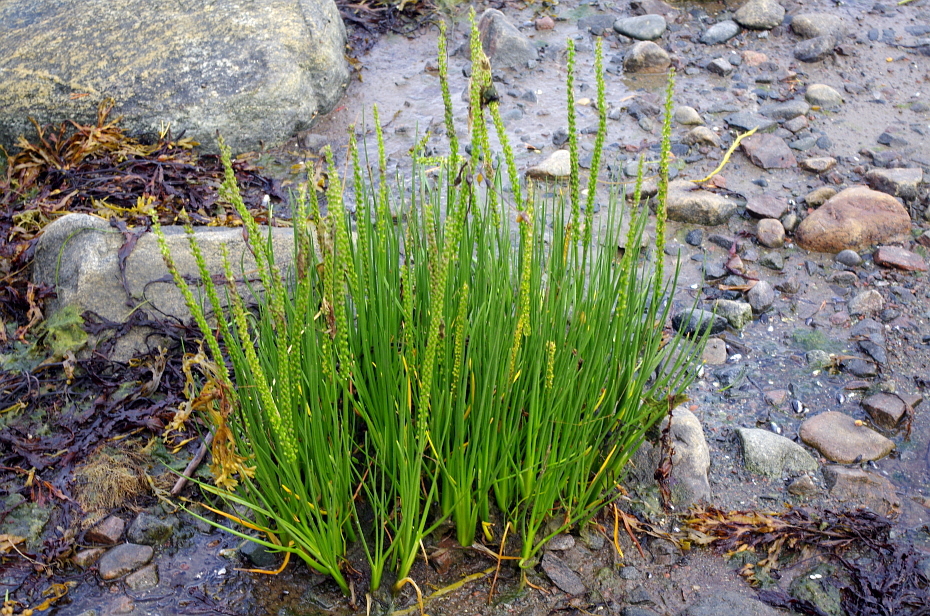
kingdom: Plantae
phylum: Tracheophyta
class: Liliopsida
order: Alismatales
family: Juncaginaceae
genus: Triglochin
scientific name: Triglochin maritima
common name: Sea arrowgrass
